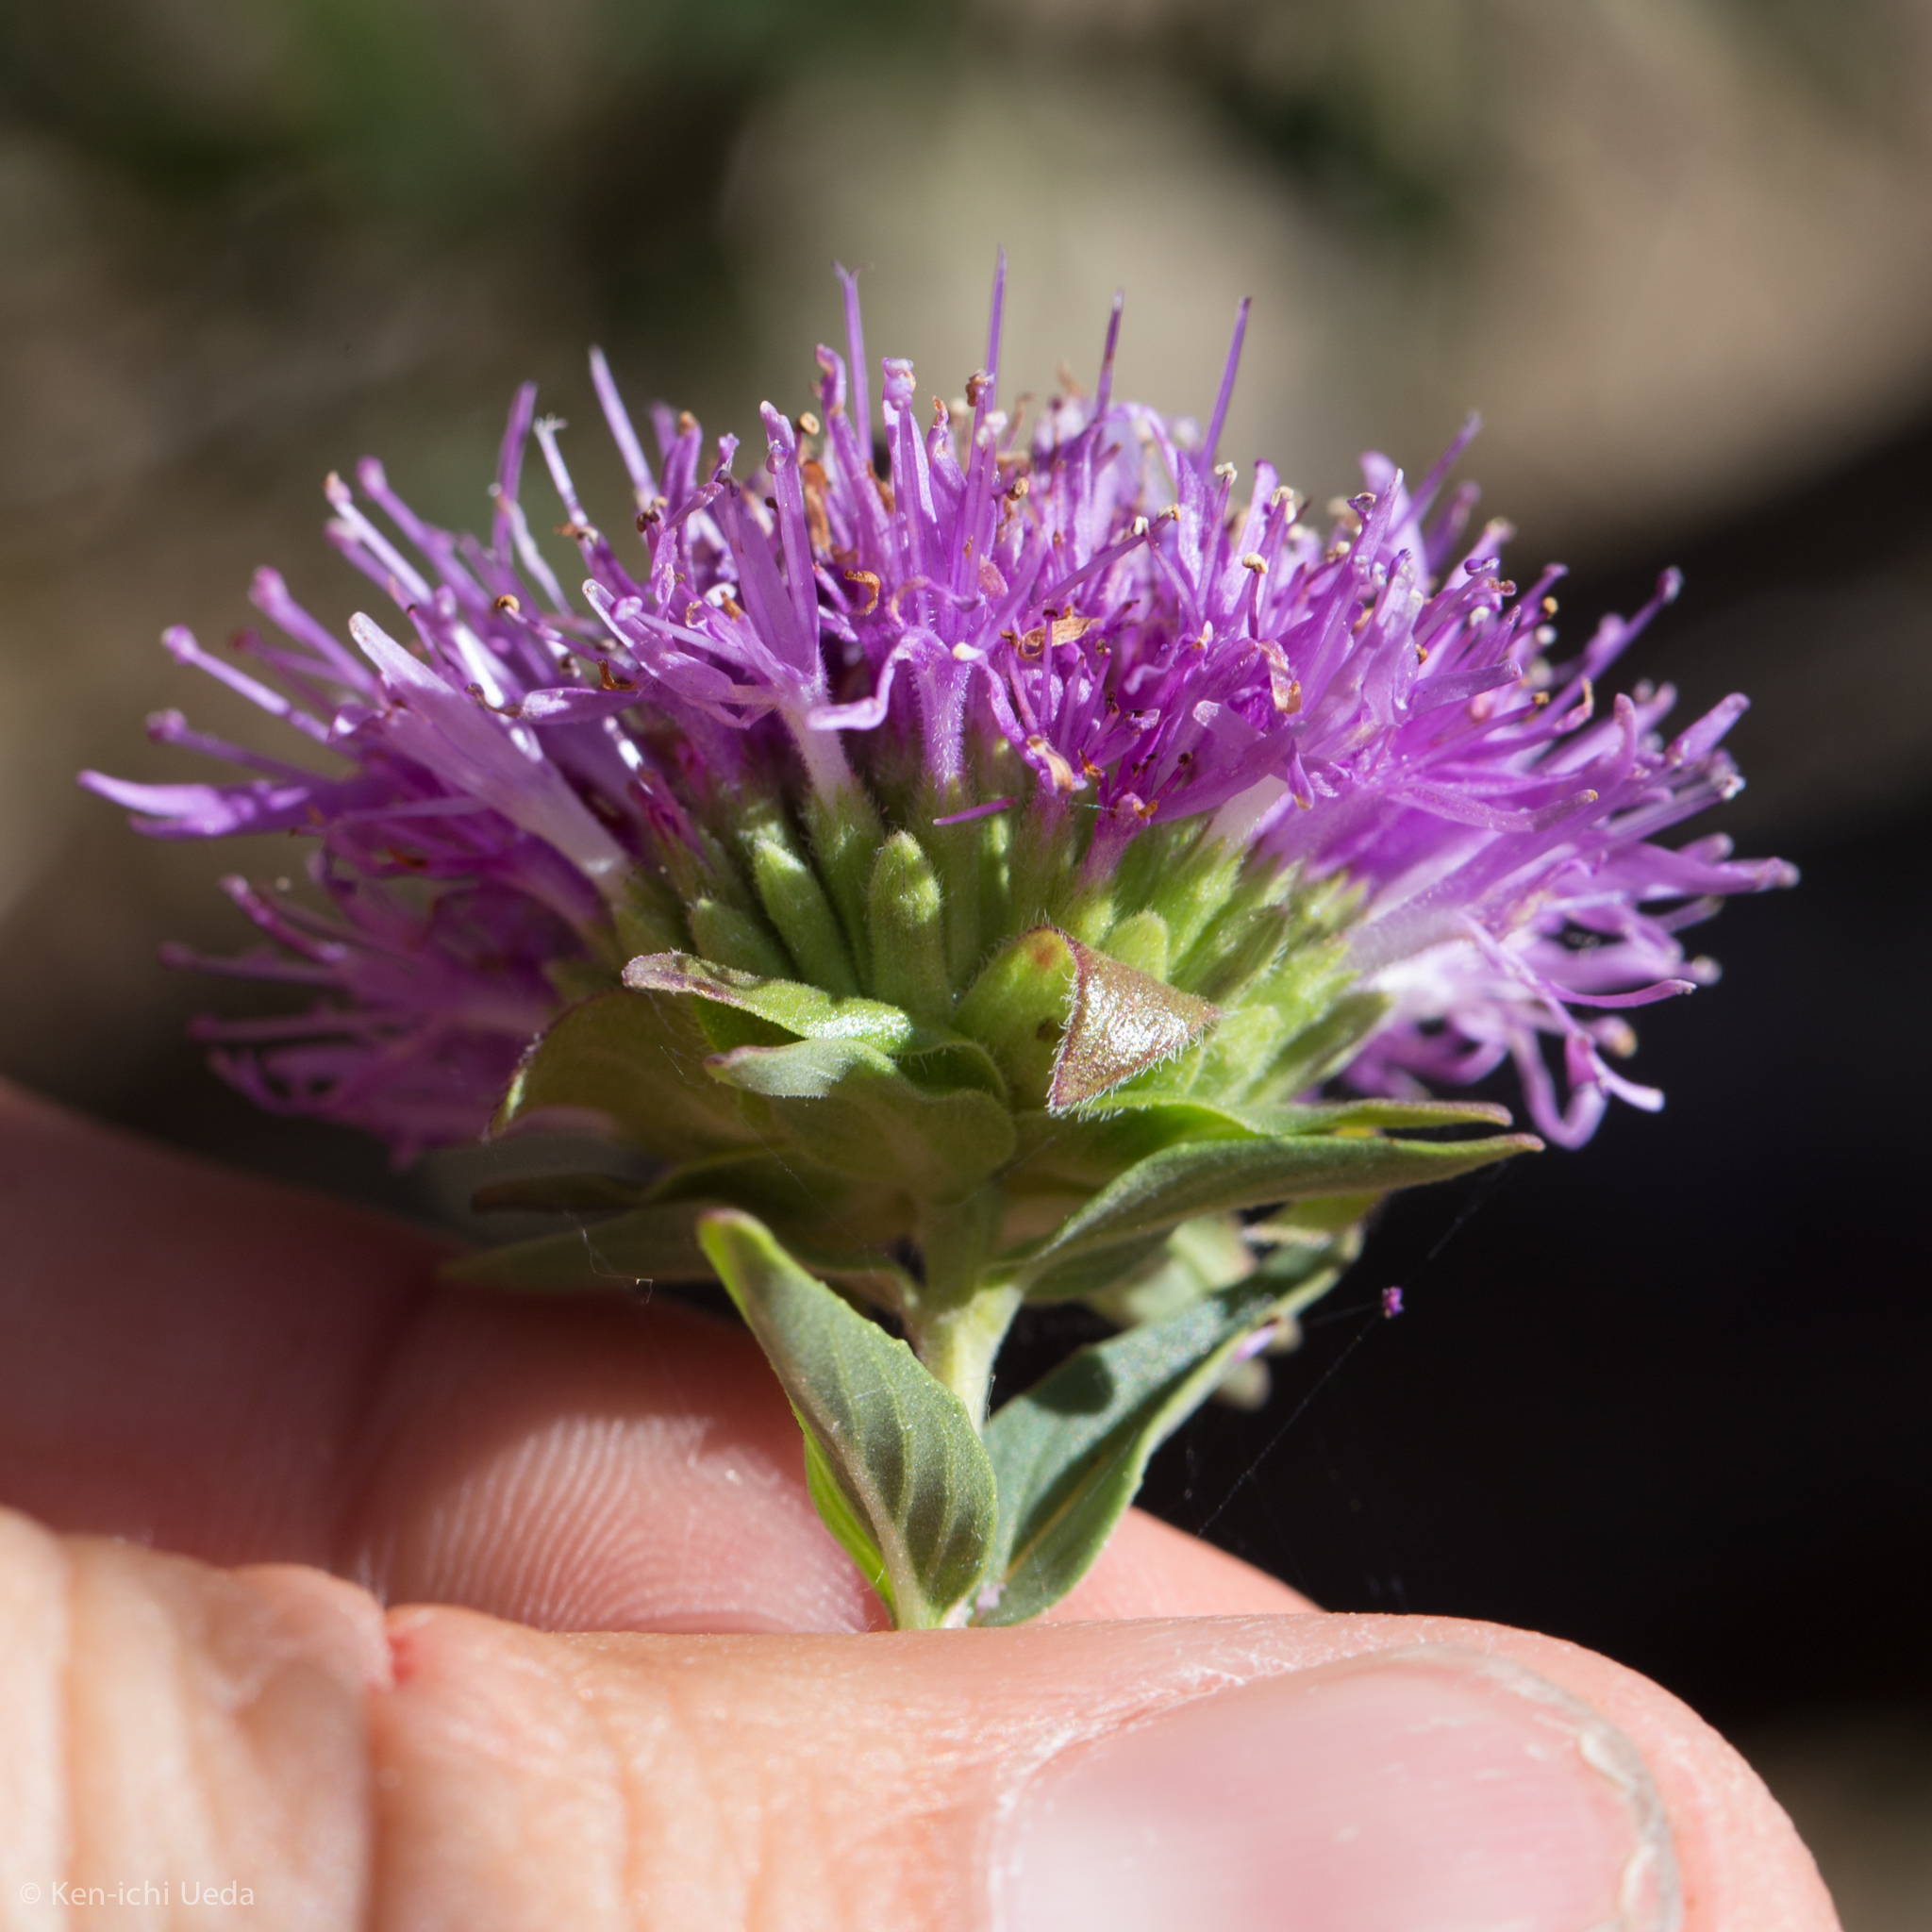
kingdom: Plantae
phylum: Tracheophyta
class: Magnoliopsida
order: Lamiales
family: Lamiaceae
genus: Monardella
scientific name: Monardella odoratissima
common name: Pacific monardella
